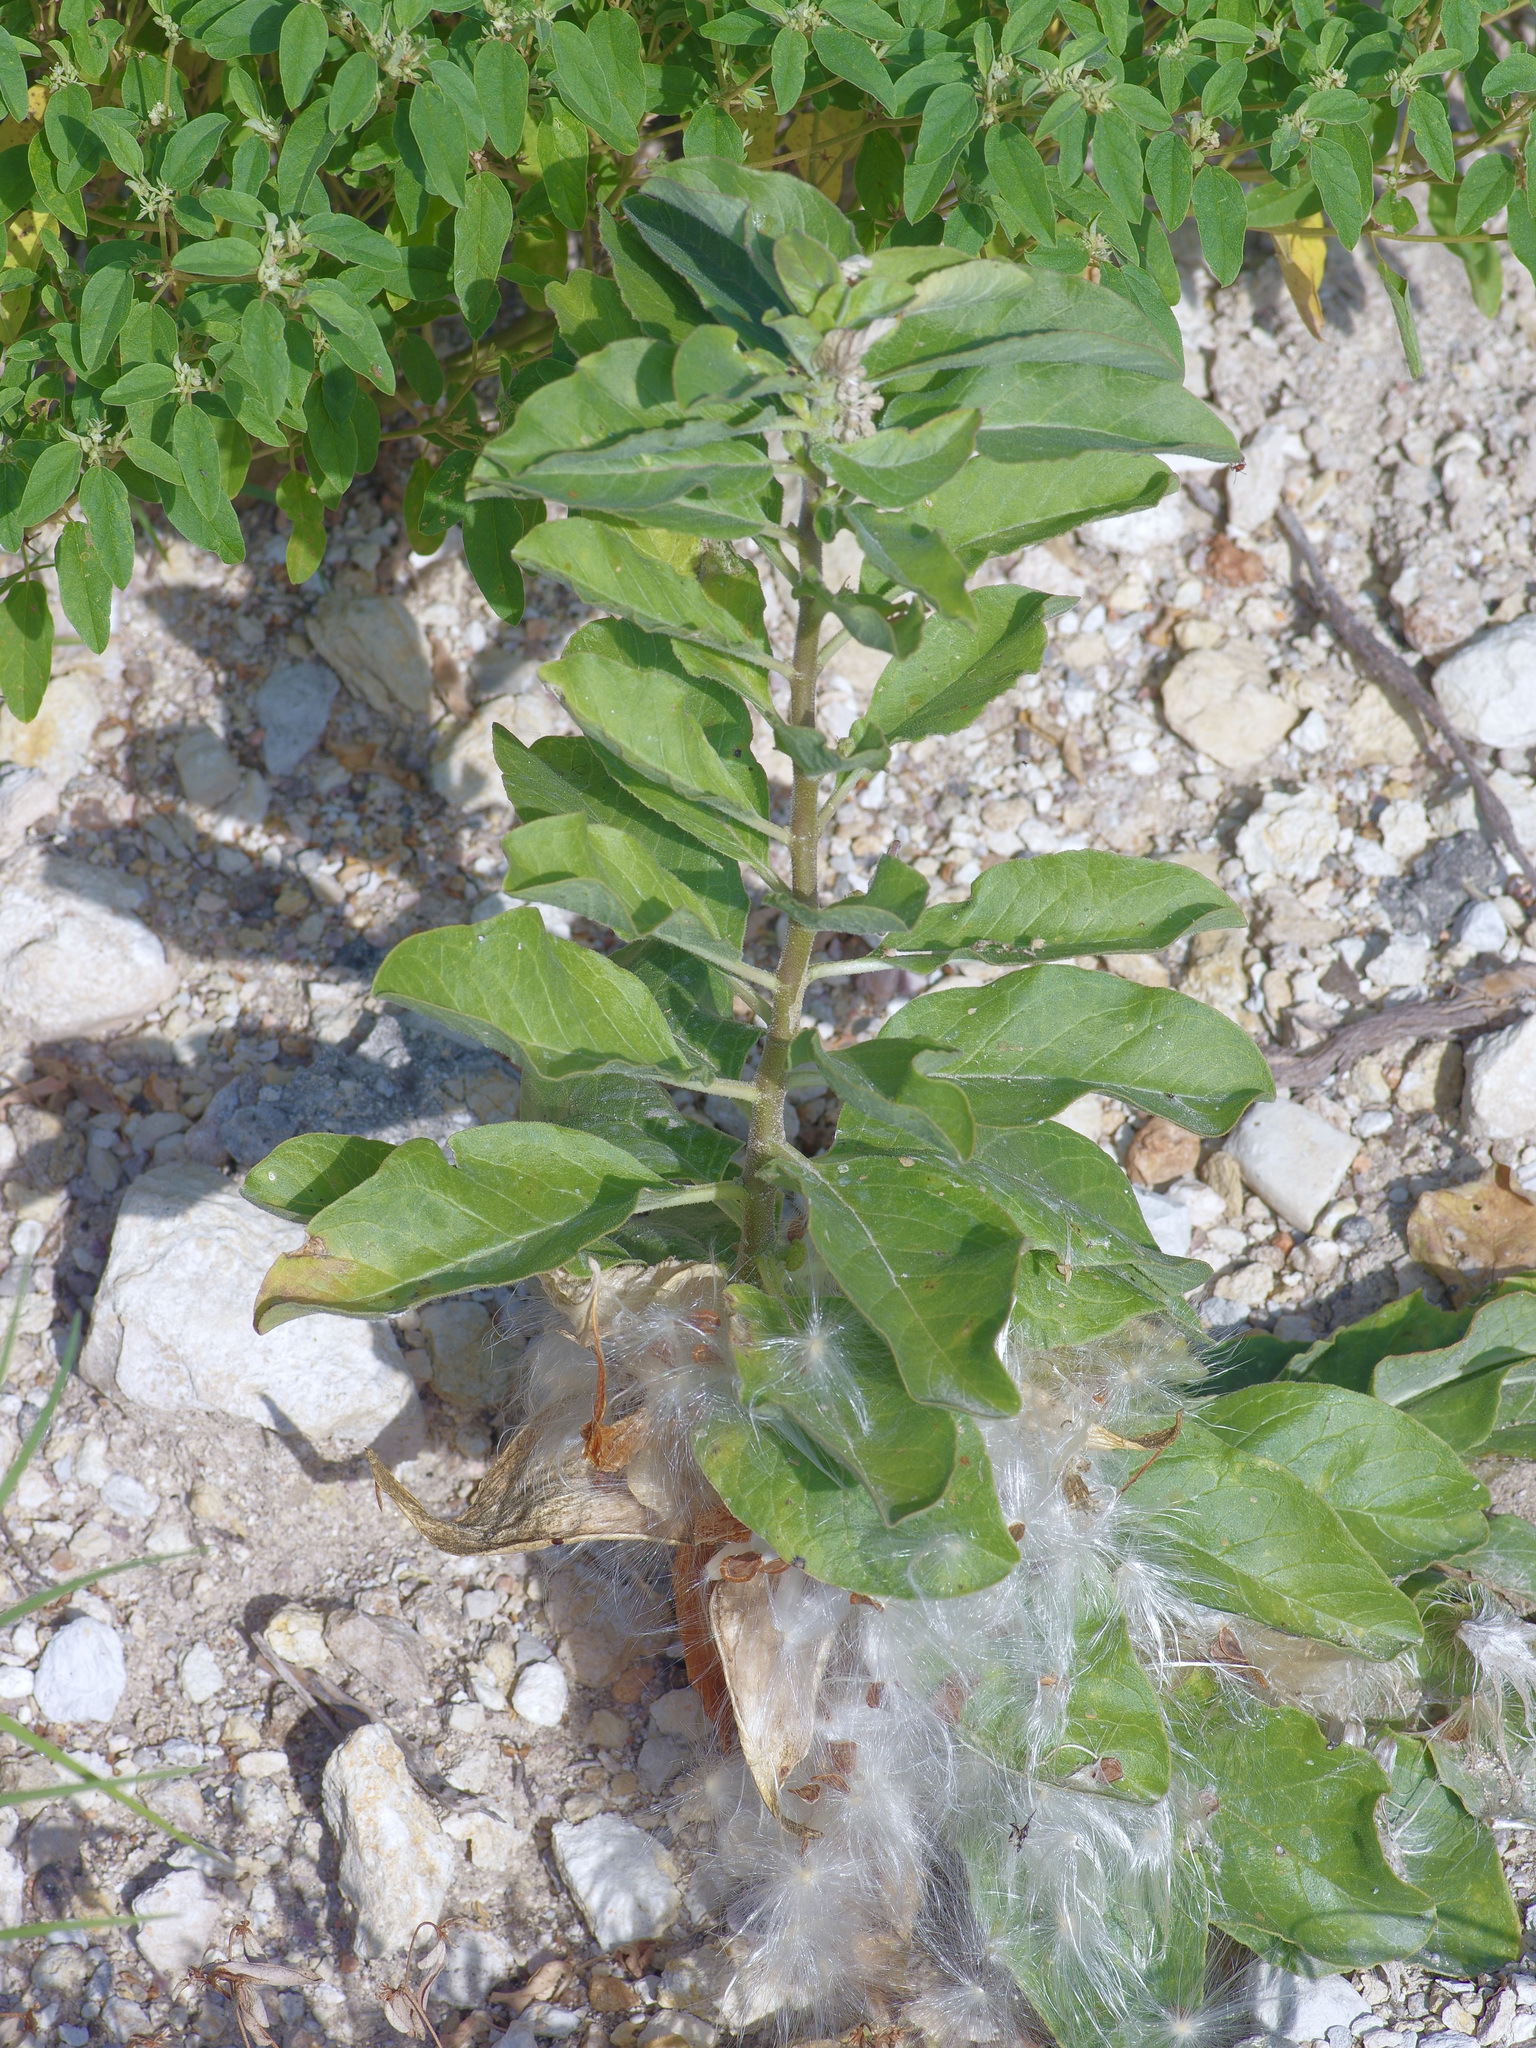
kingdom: Plantae
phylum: Tracheophyta
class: Magnoliopsida
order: Gentianales
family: Apocynaceae
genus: Asclepias
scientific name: Asclepias oenotheroides
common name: Zizotes milkweed
